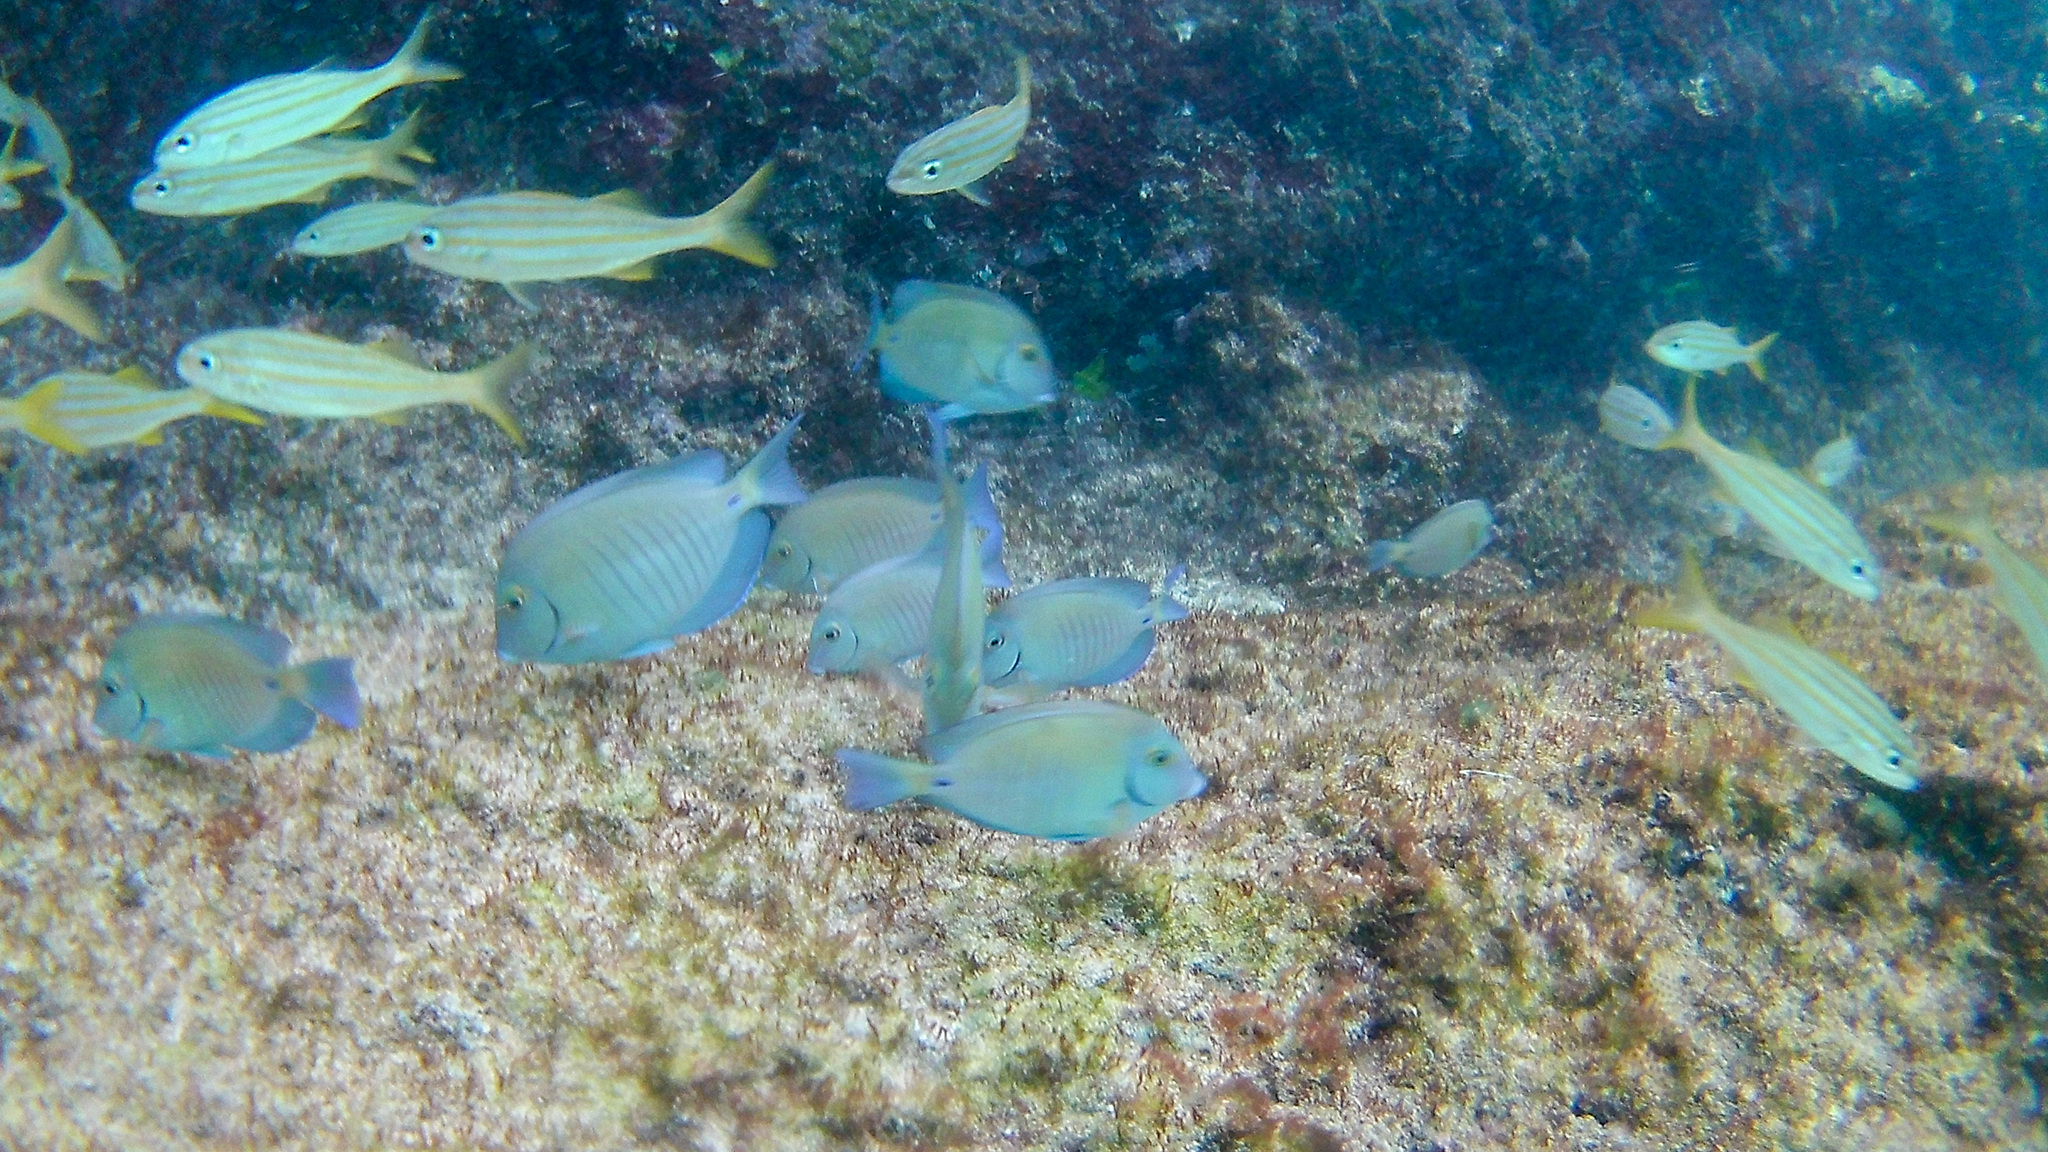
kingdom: Animalia
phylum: Chordata
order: Perciformes
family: Acanthuridae
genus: Acanthurus
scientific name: Acanthurus chirurgus
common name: Doctorfish
